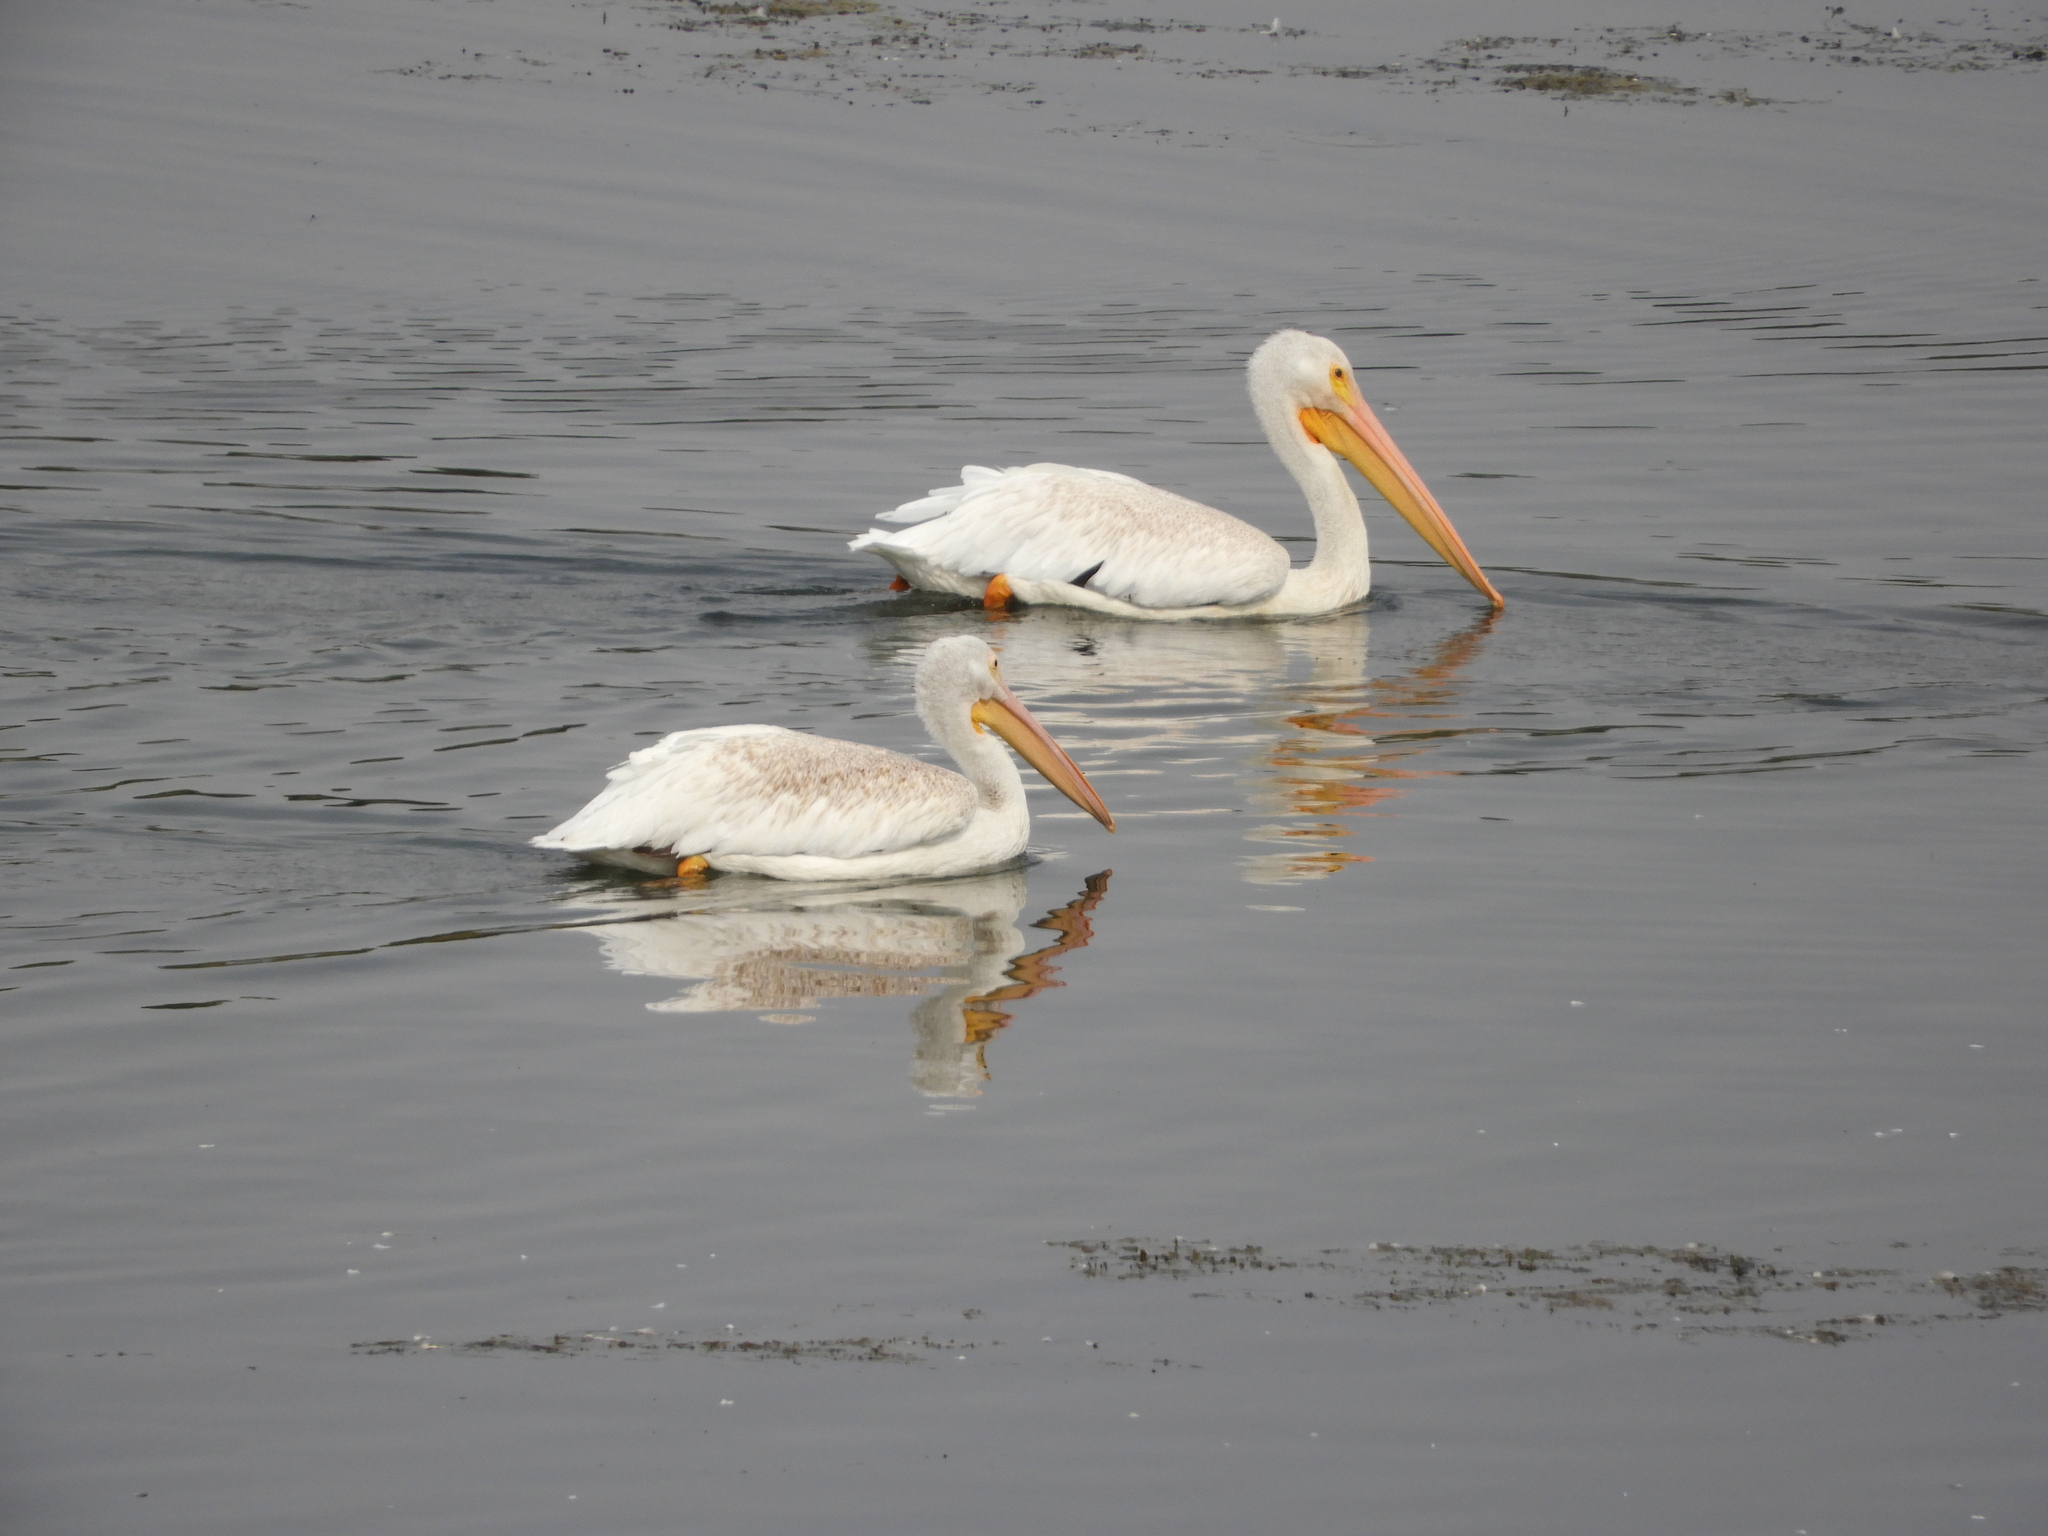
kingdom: Animalia
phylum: Chordata
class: Aves
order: Pelecaniformes
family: Pelecanidae
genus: Pelecanus
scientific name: Pelecanus erythrorhynchos
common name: American white pelican
